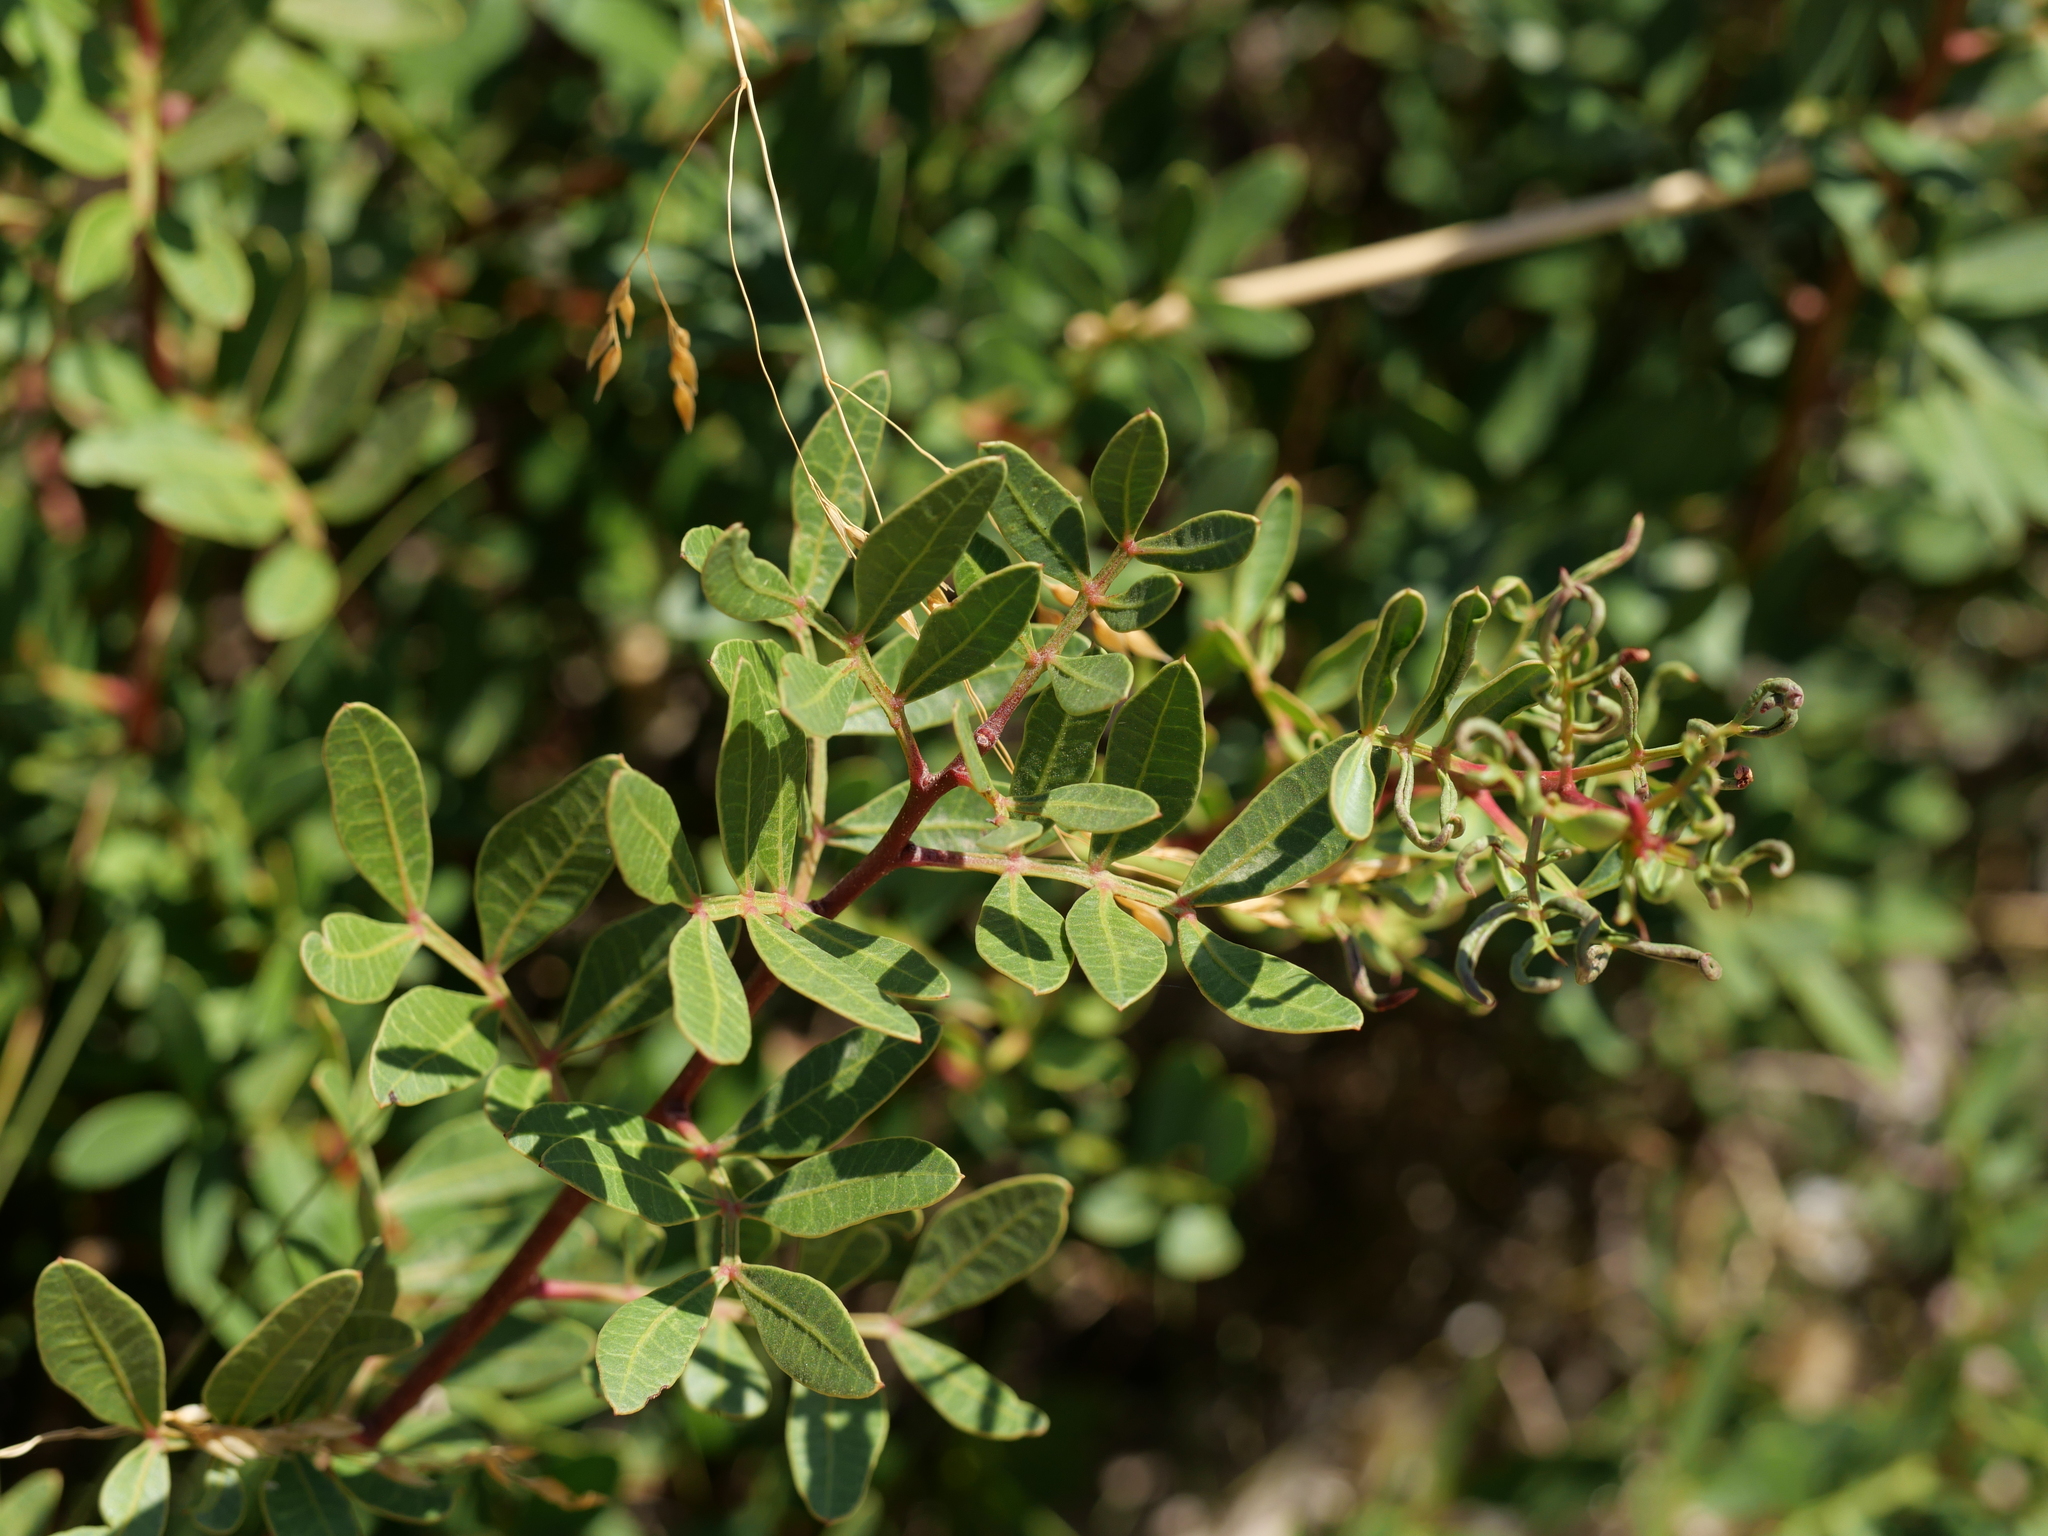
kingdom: Plantae
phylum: Tracheophyta
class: Magnoliopsida
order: Sapindales
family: Anacardiaceae
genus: Pistacia
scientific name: Pistacia lentiscus
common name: Lentisk
